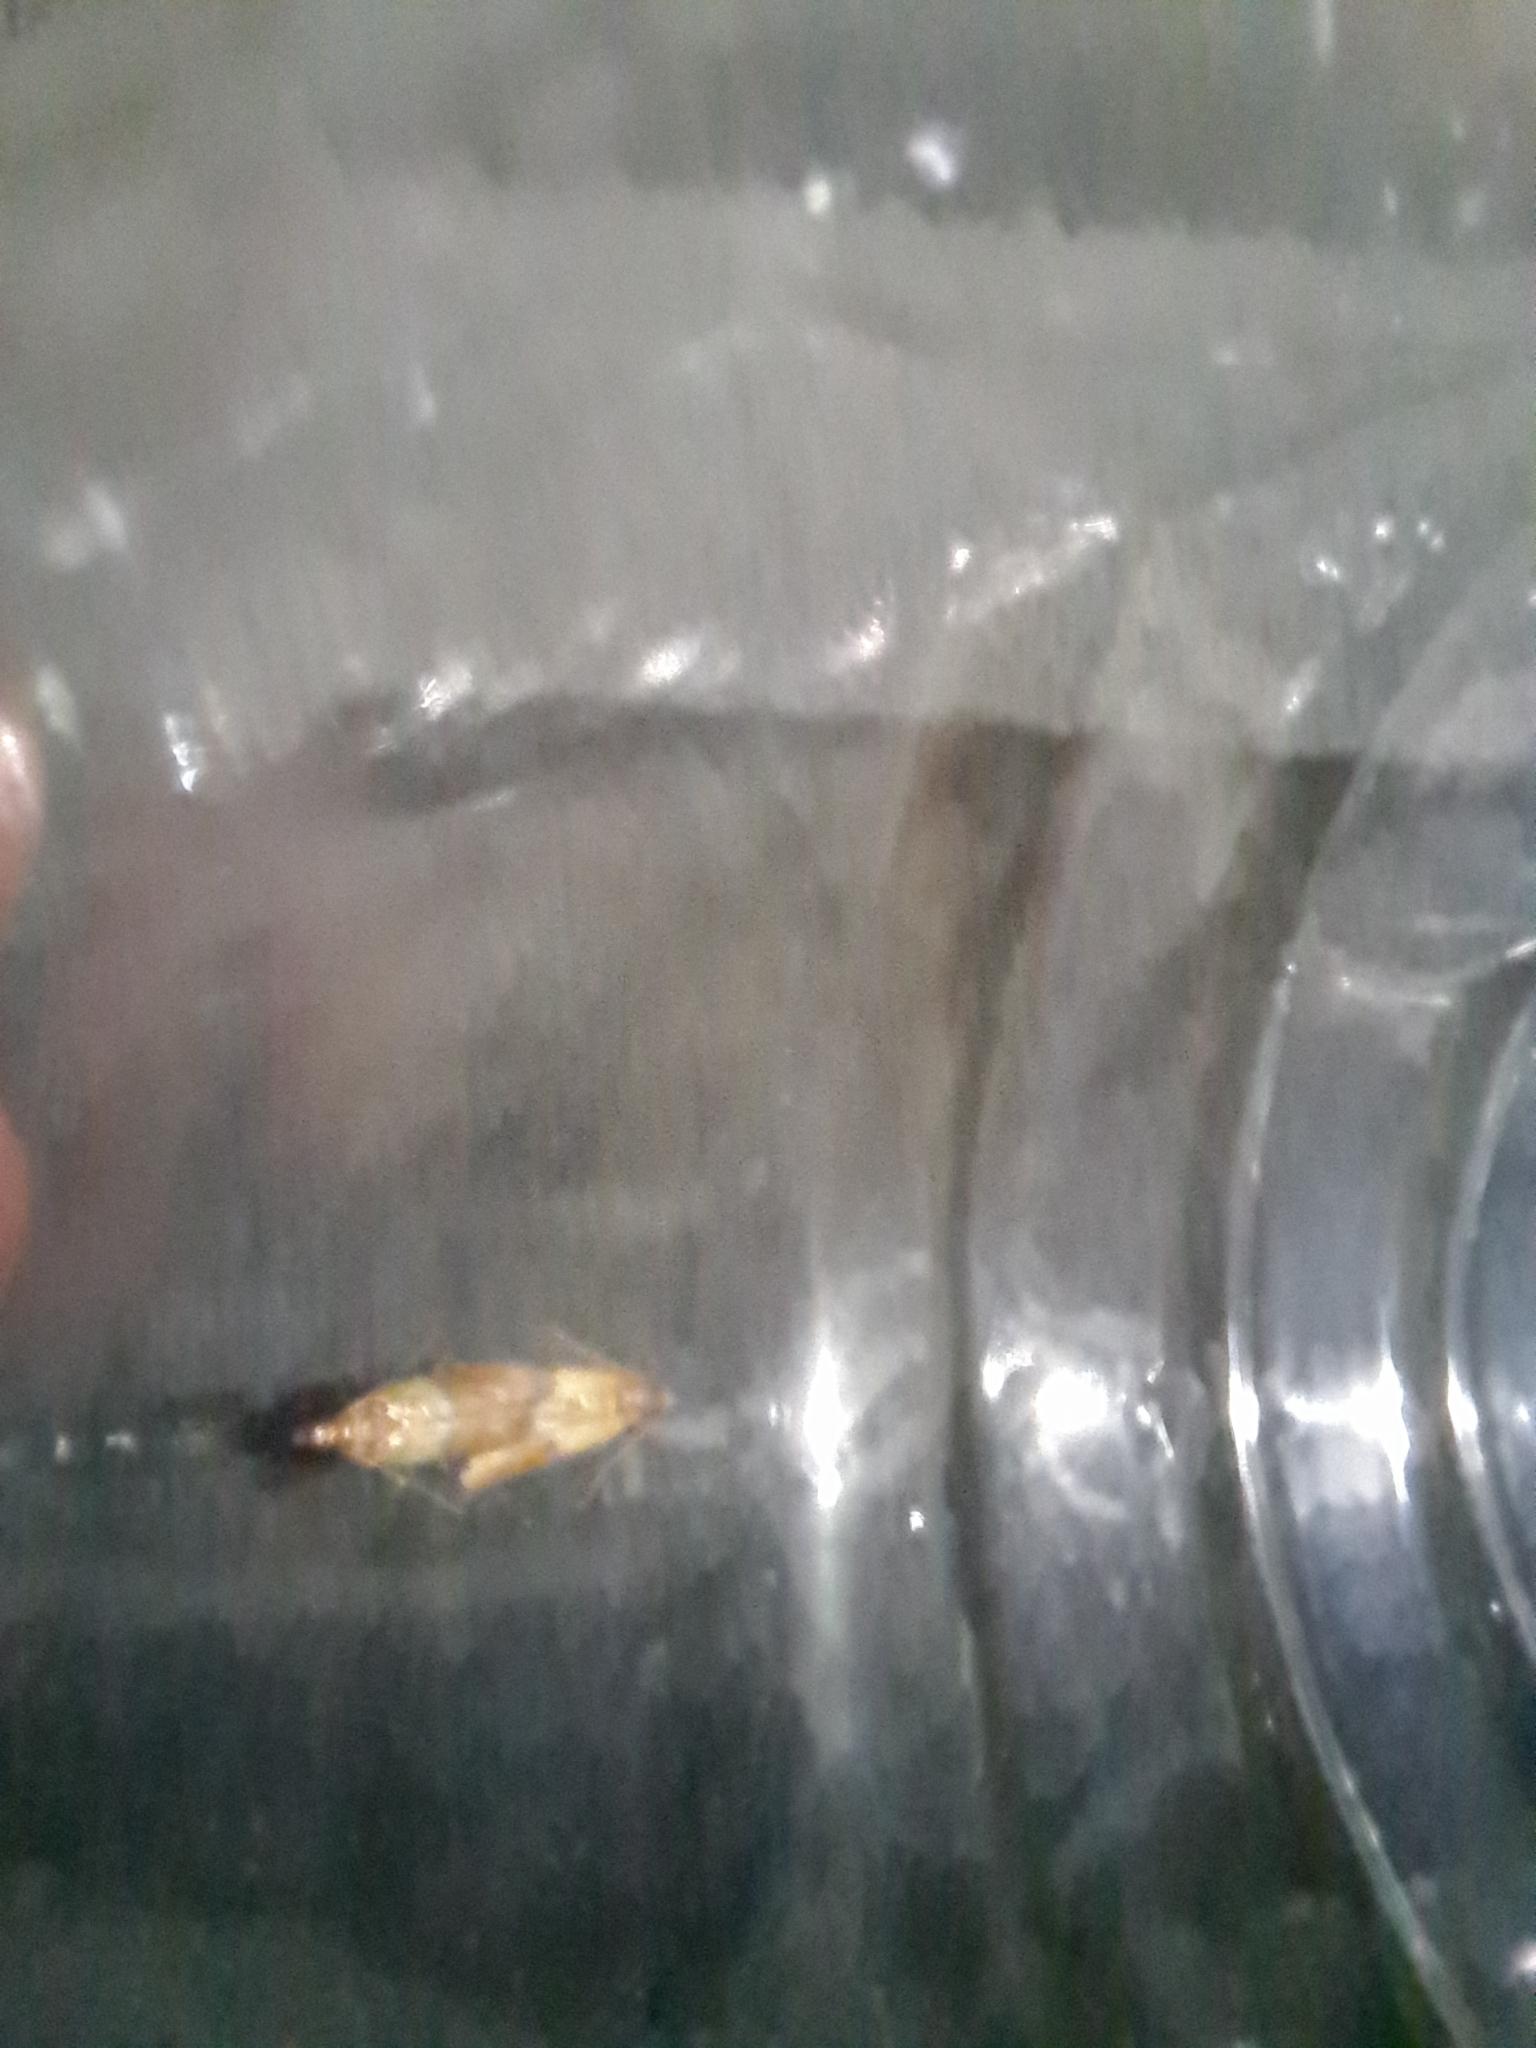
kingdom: Animalia
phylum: Arthropoda
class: Insecta
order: Lepidoptera
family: Pyralidae
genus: Plodia
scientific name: Plodia interpunctella
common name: Indian meal moth
